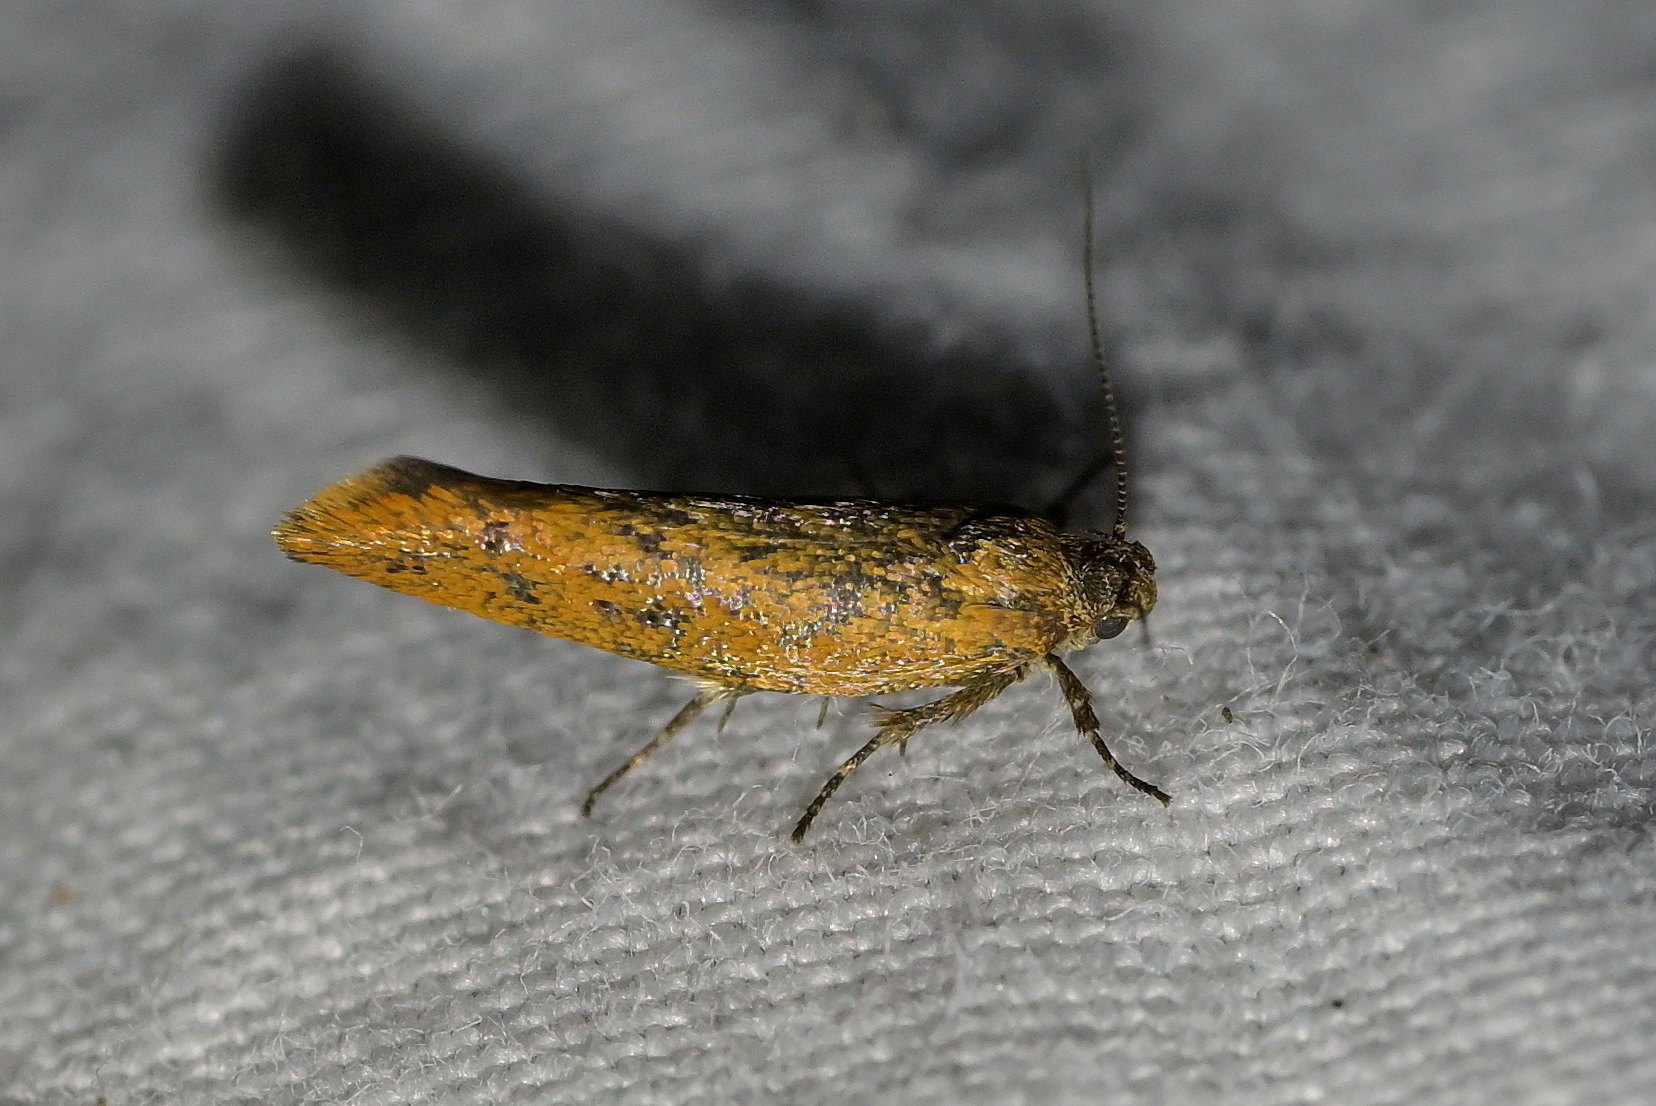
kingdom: Animalia
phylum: Arthropoda
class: Insecta
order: Lepidoptera
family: Oecophoridae
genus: Tingena
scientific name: Tingena siderodeta
